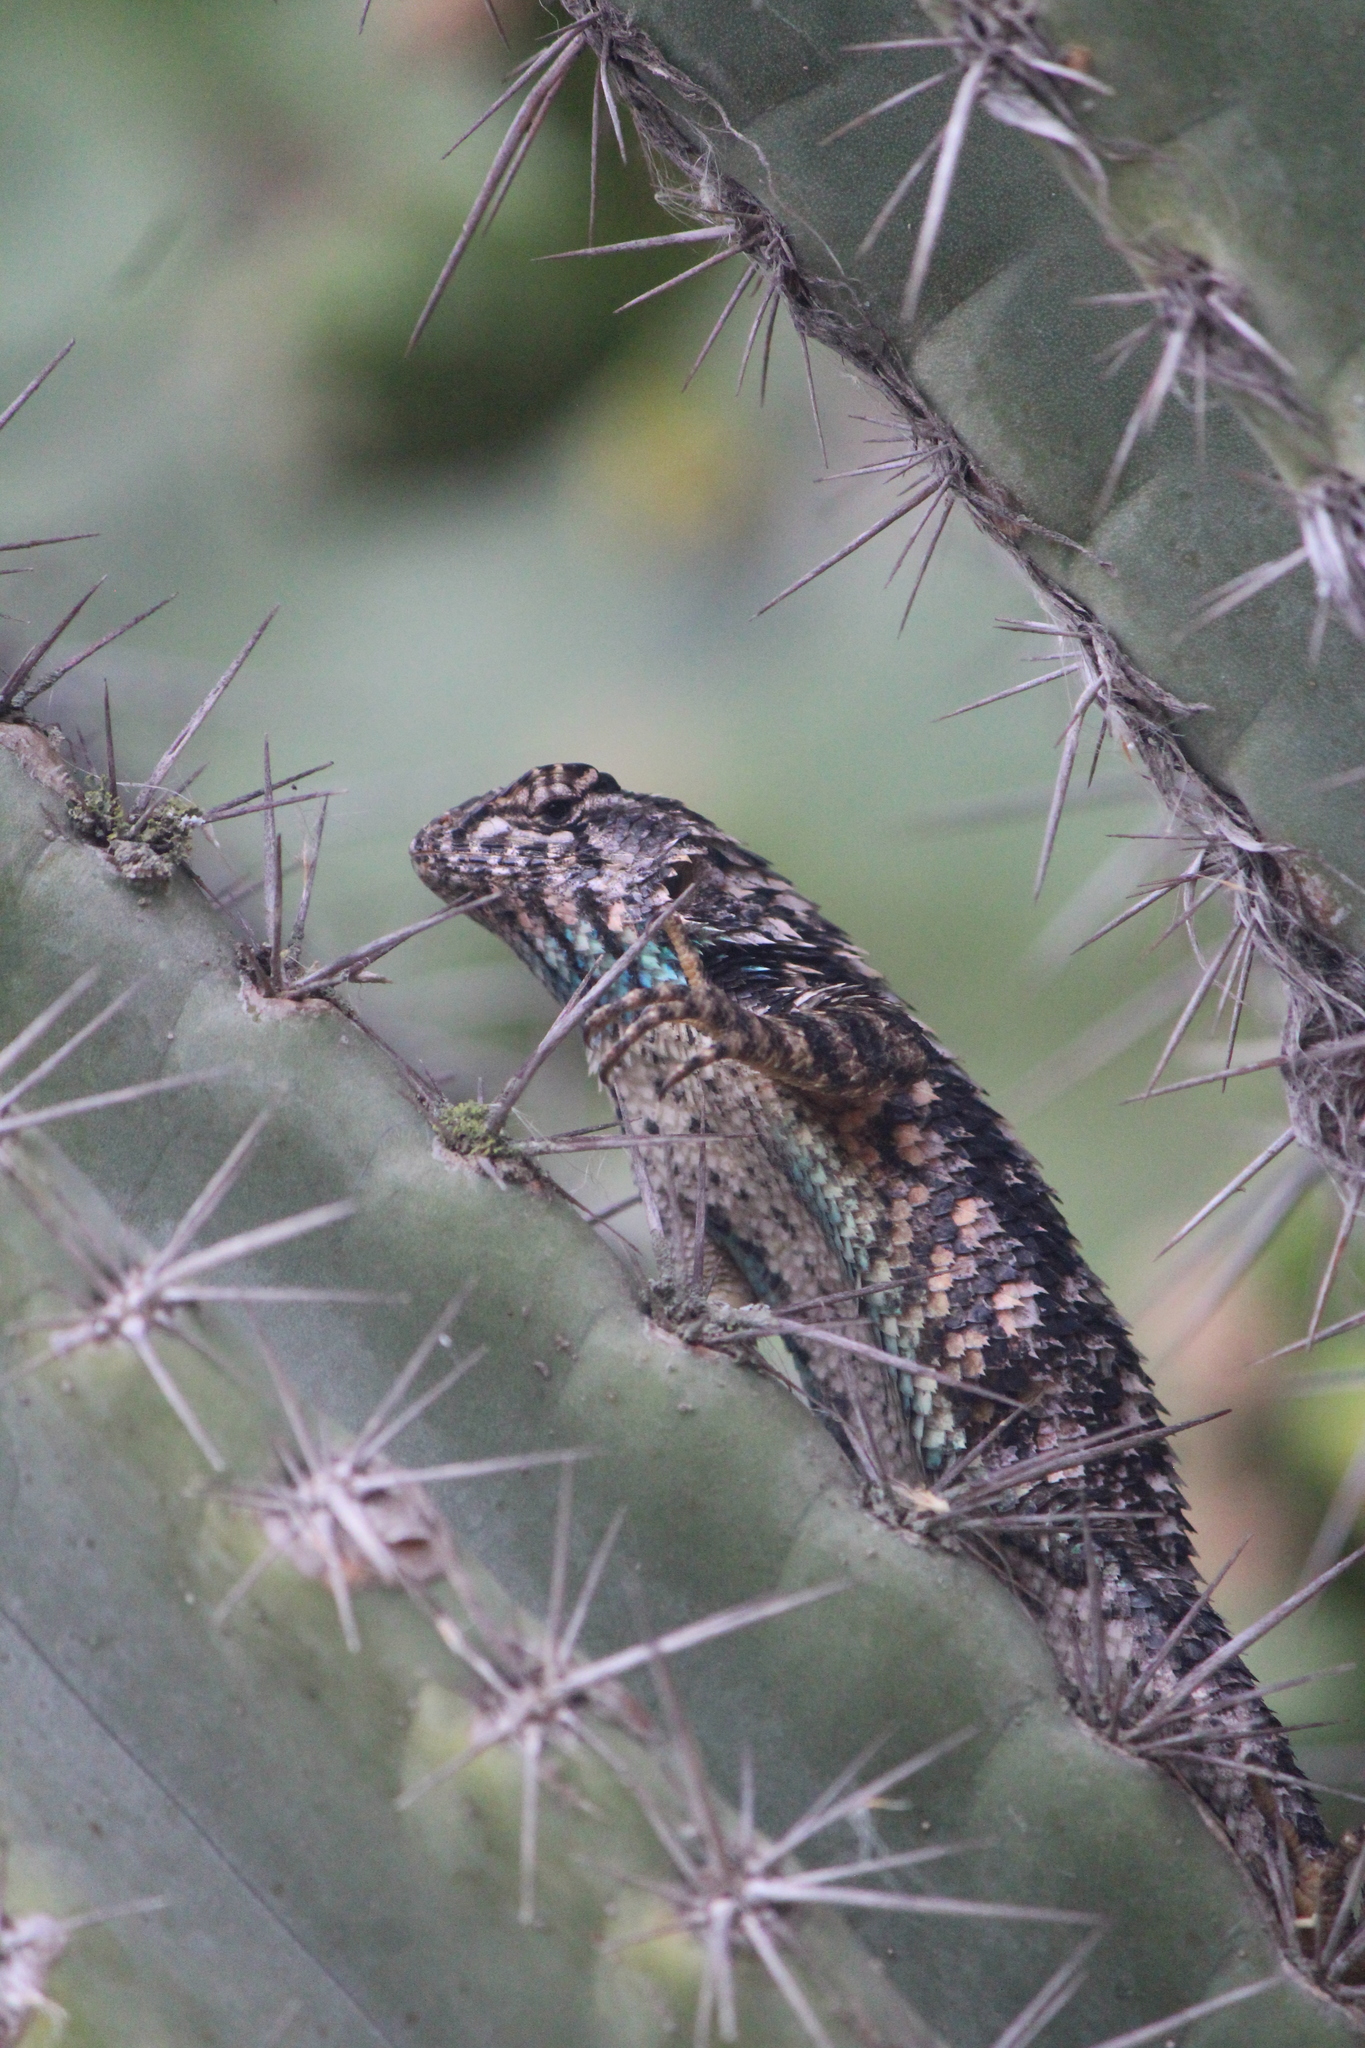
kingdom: Animalia
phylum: Chordata
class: Squamata
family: Phrynosomatidae
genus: Sceloporus
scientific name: Sceloporus spinosus
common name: Blue-spotted spiny lizard [caeruleopunctatus]
